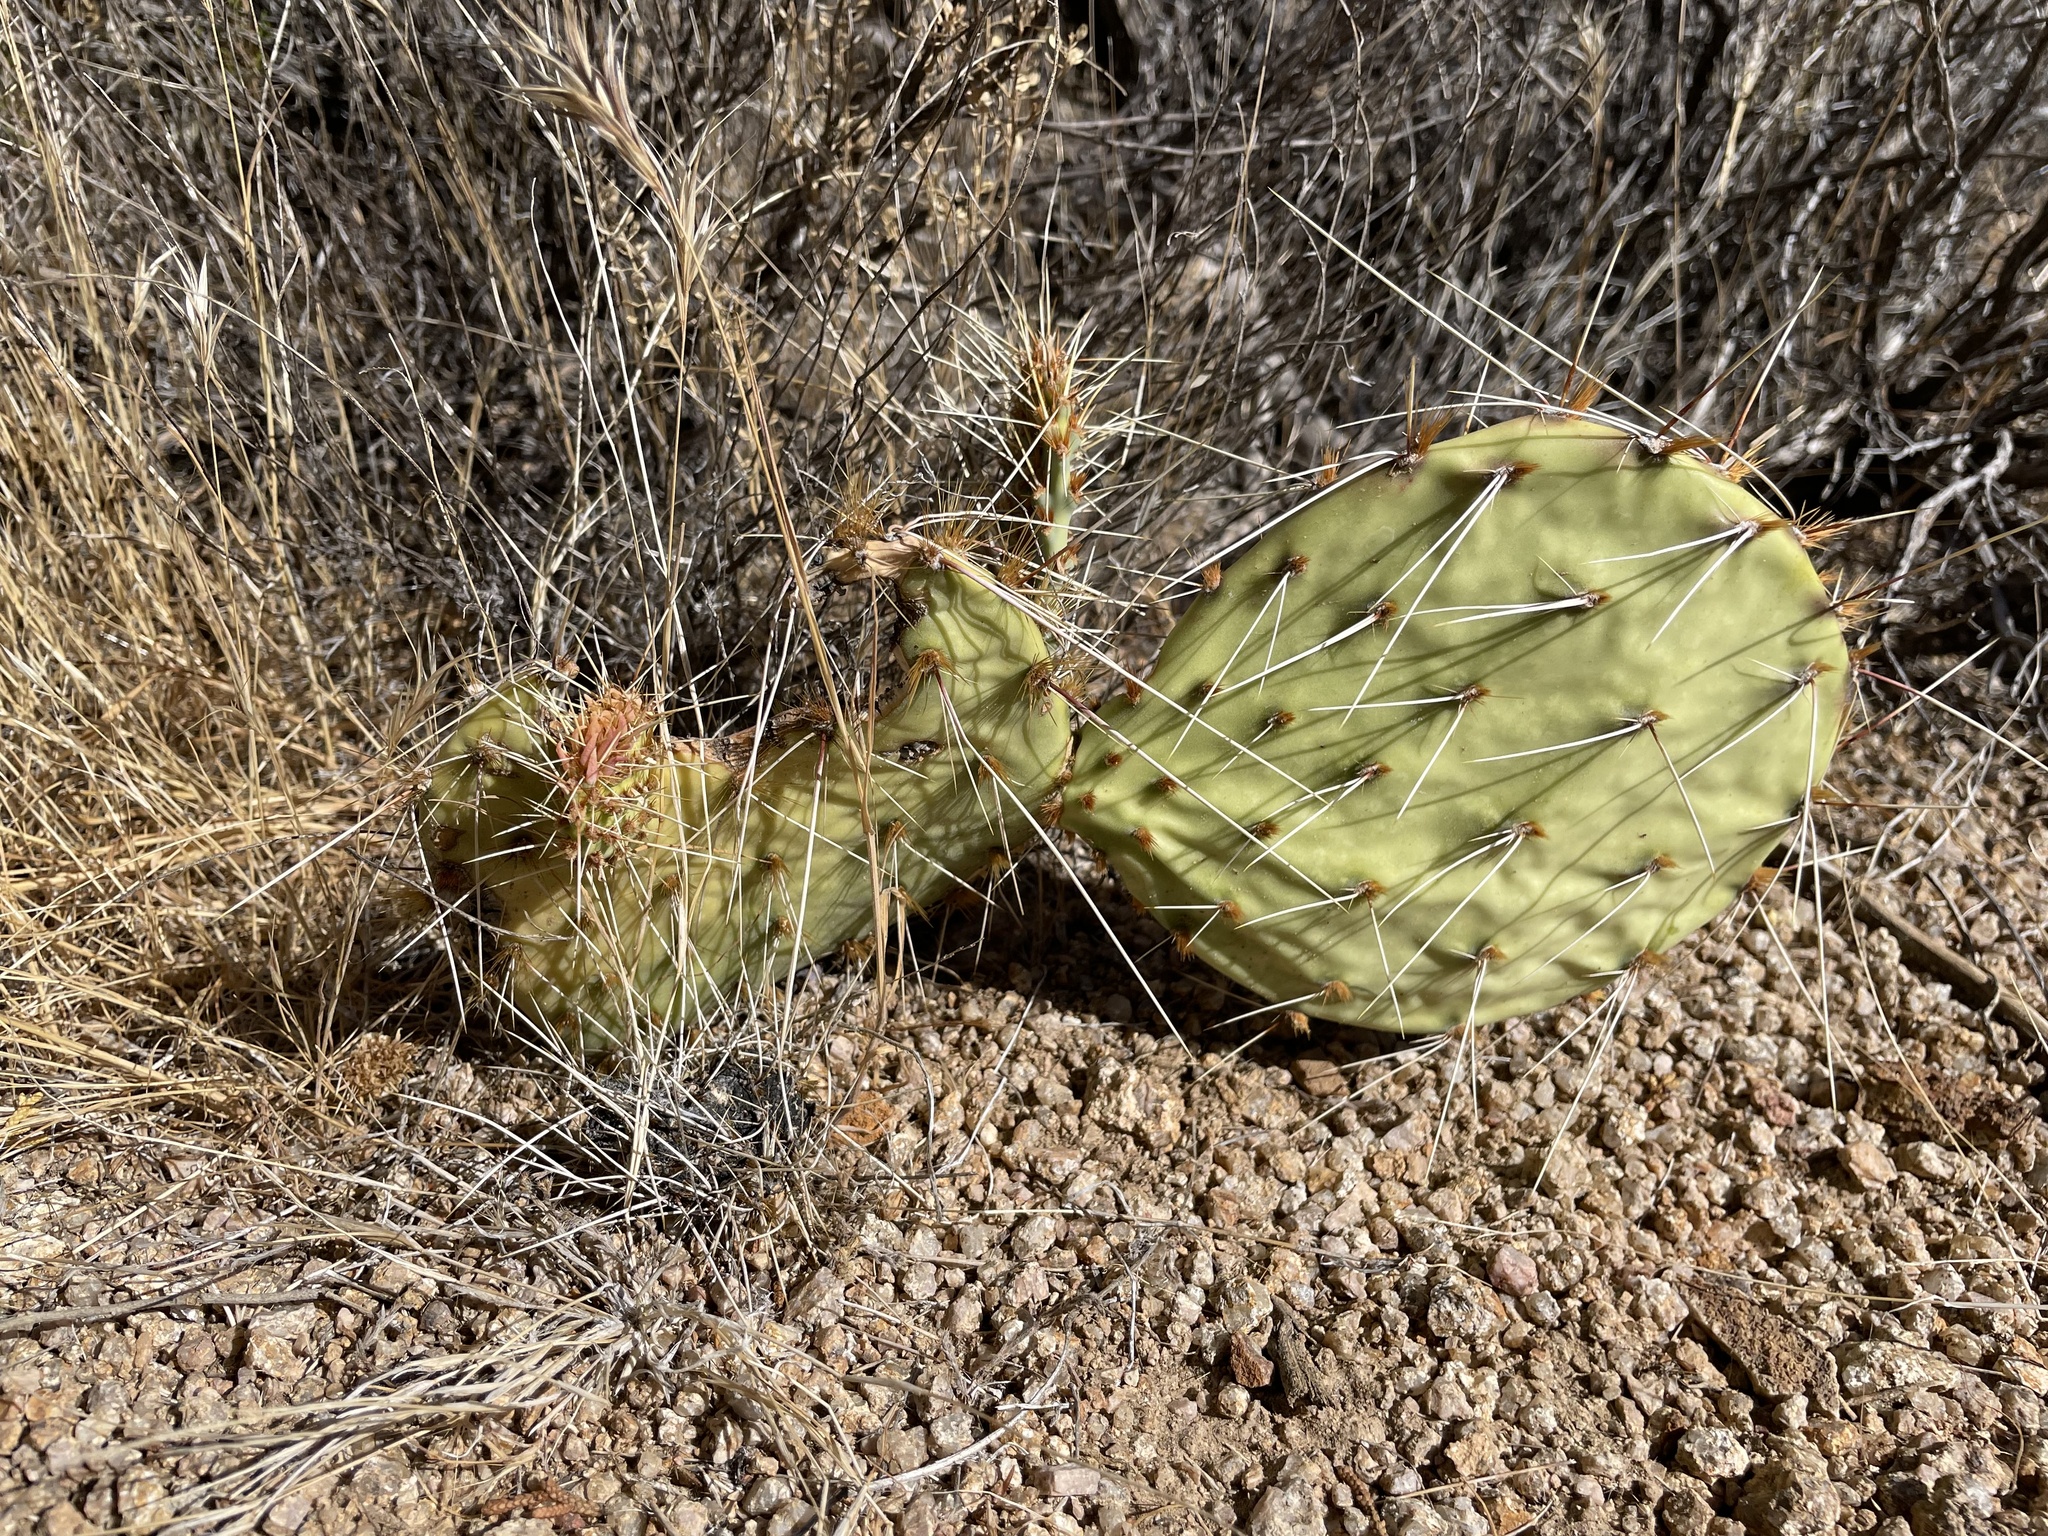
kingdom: Plantae
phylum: Tracheophyta
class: Magnoliopsida
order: Caryophyllales
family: Cactaceae
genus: Opuntia
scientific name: Opuntia phaeacantha
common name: New mexico prickly-pear
